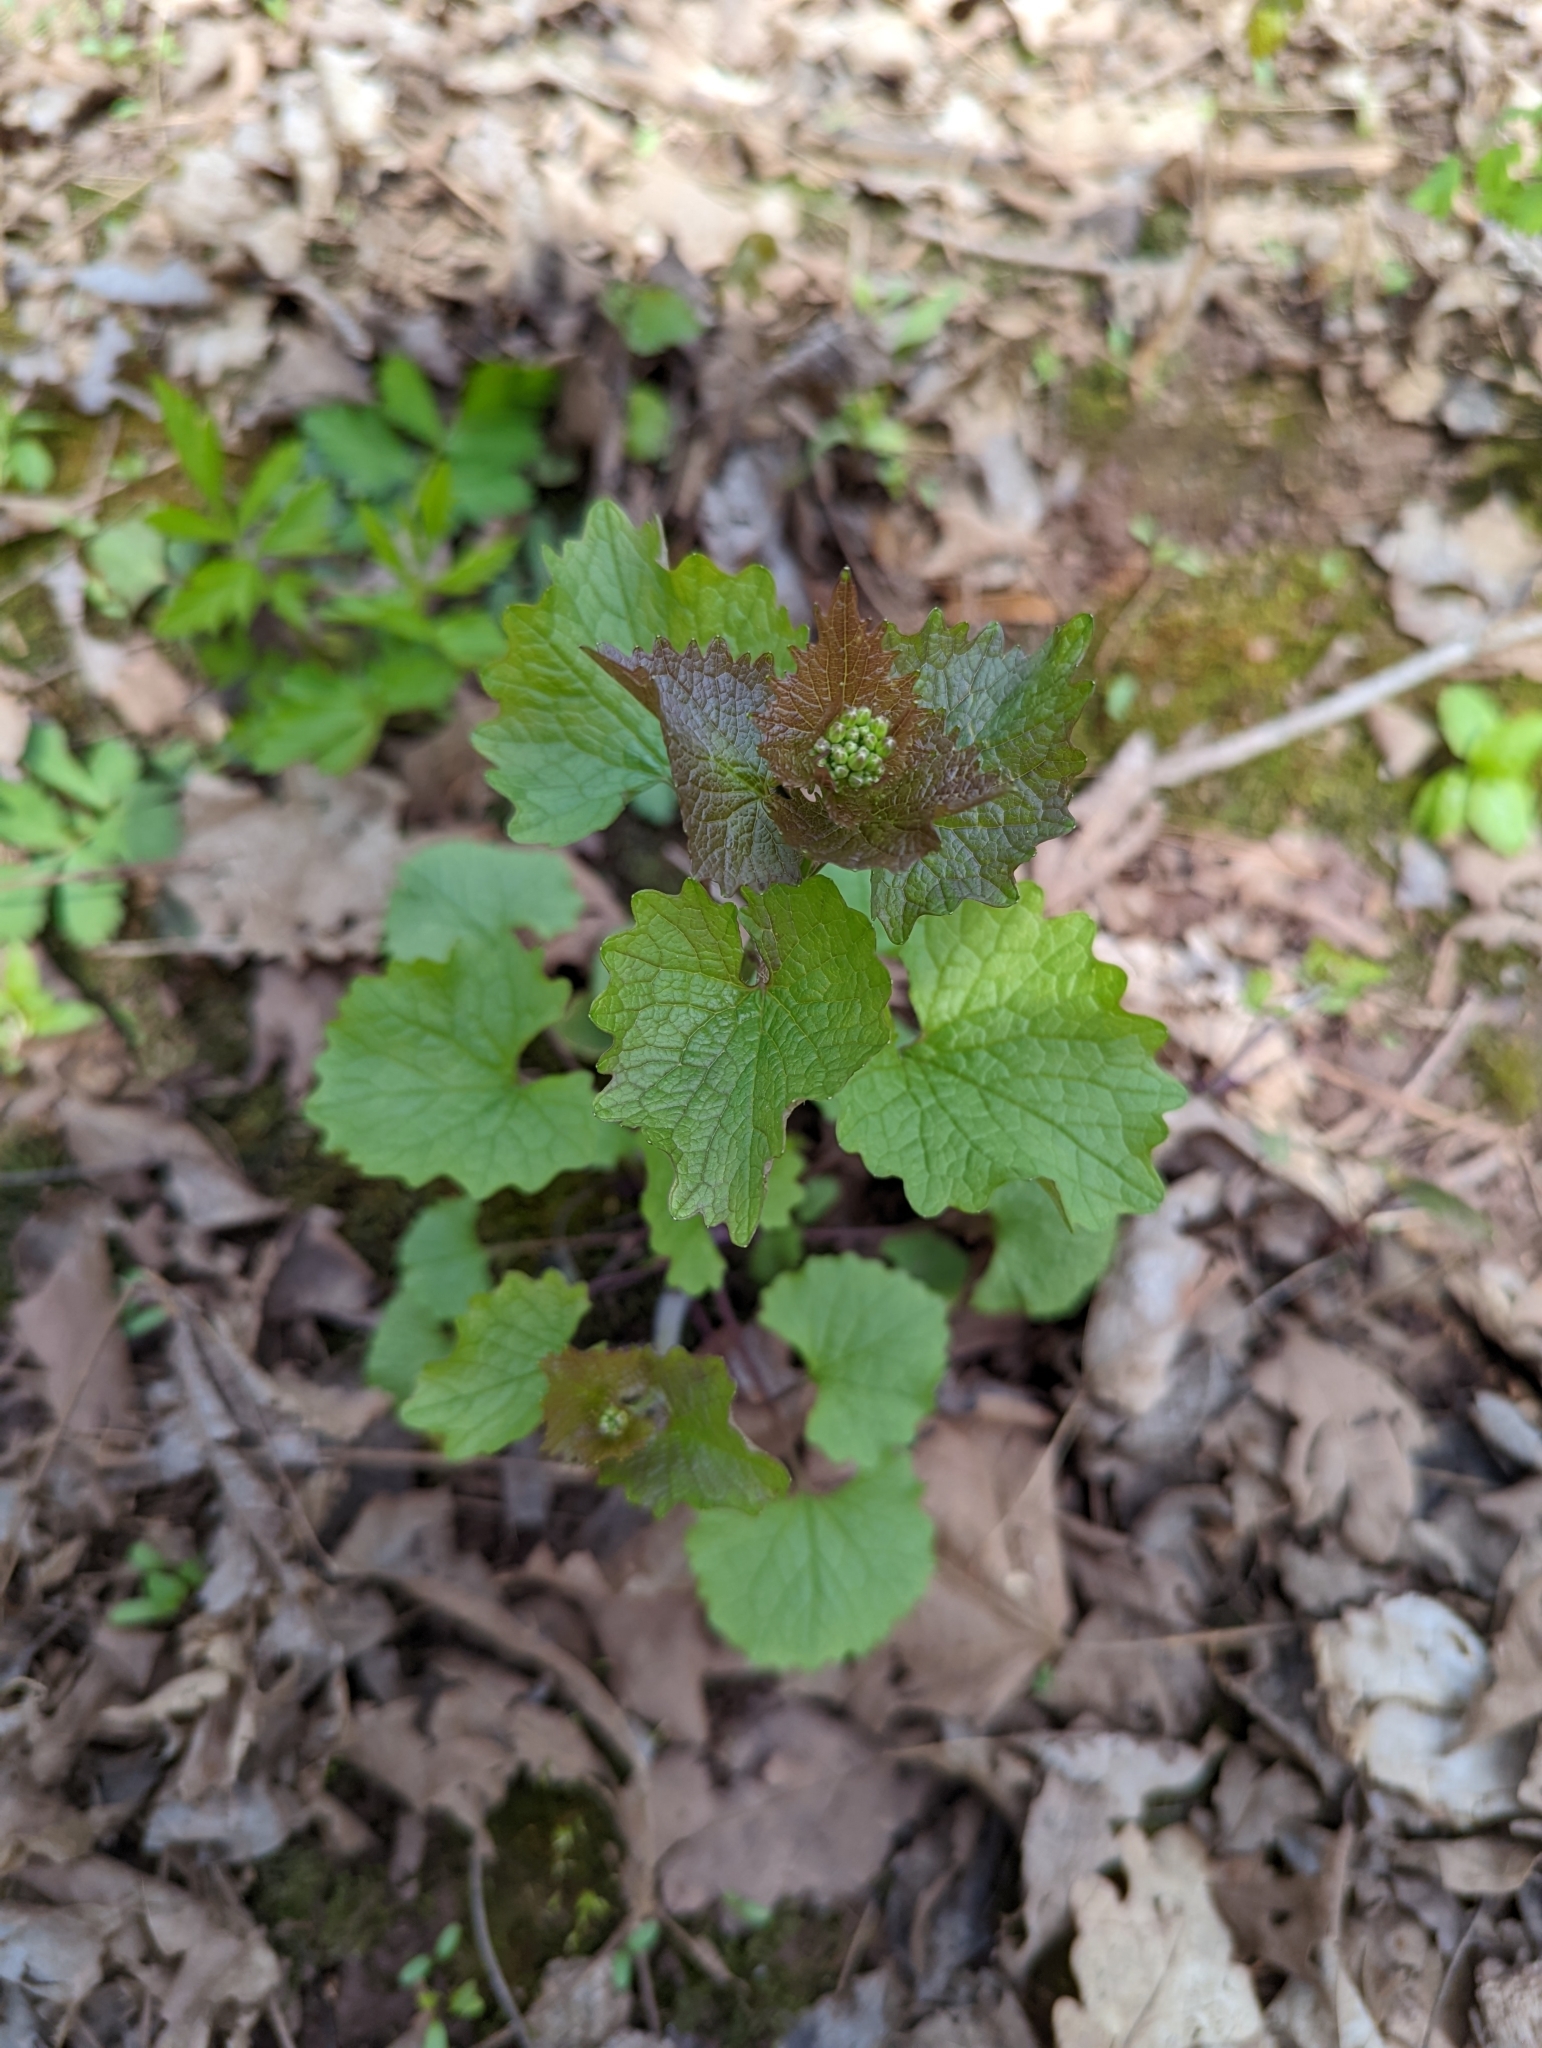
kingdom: Plantae
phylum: Tracheophyta
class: Magnoliopsida
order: Brassicales
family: Brassicaceae
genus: Alliaria
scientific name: Alliaria petiolata
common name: Garlic mustard
